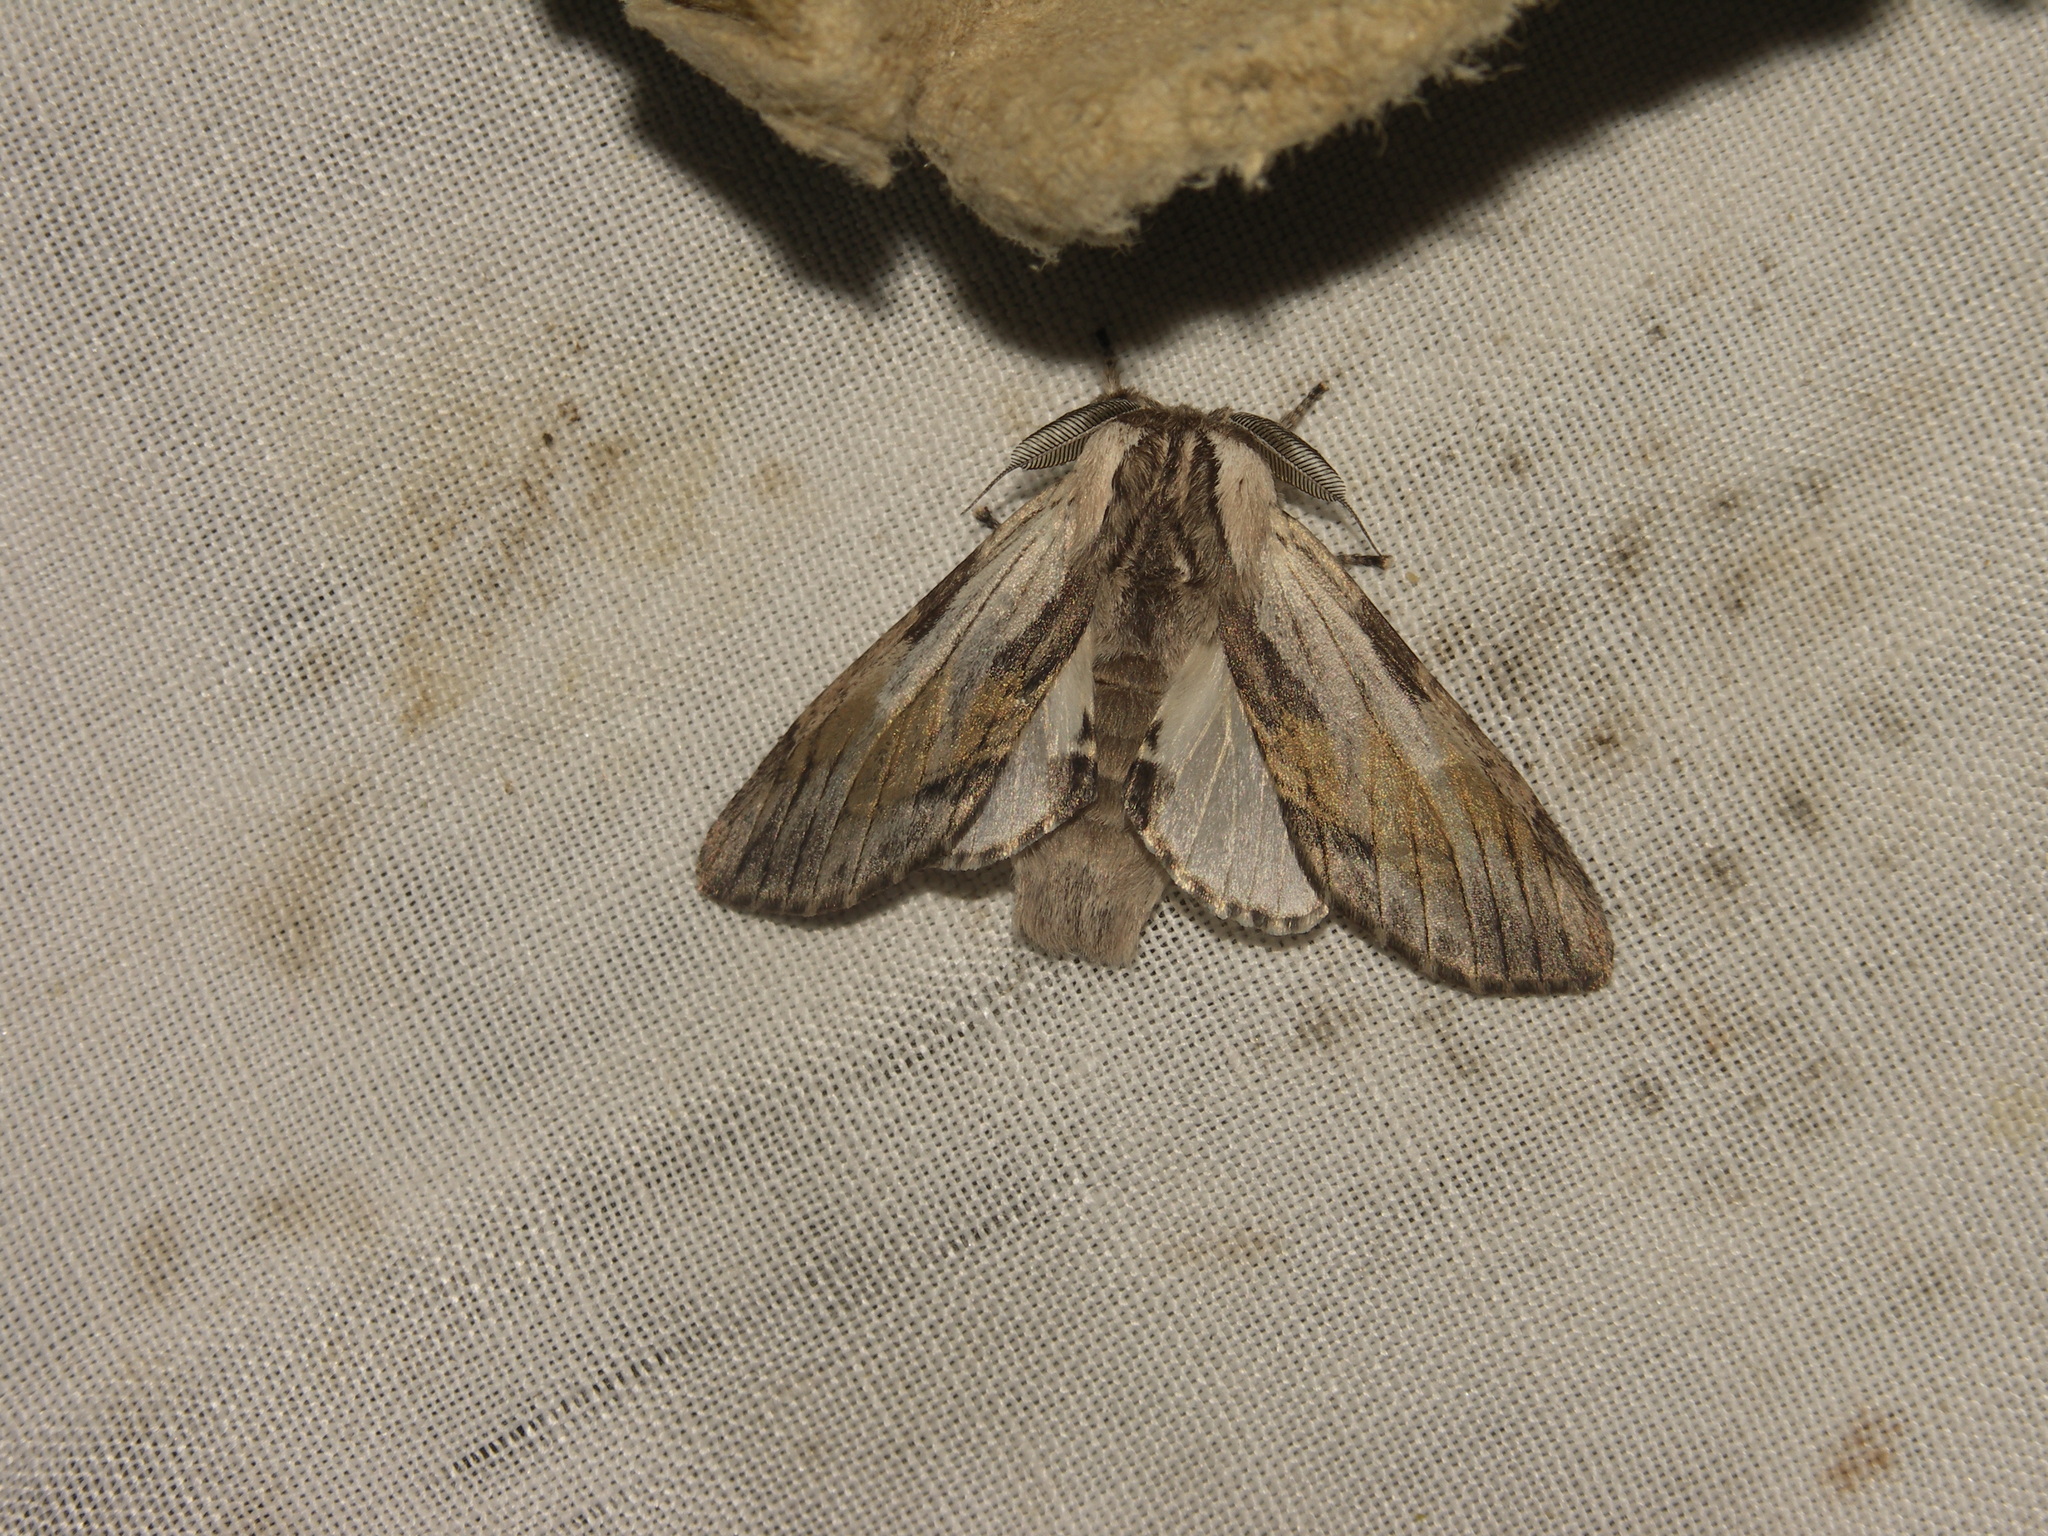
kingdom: Animalia
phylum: Arthropoda
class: Insecta
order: Lepidoptera
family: Notodontidae
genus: Harpyia
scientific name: Harpyia milhauseri
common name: Tawny prominent
